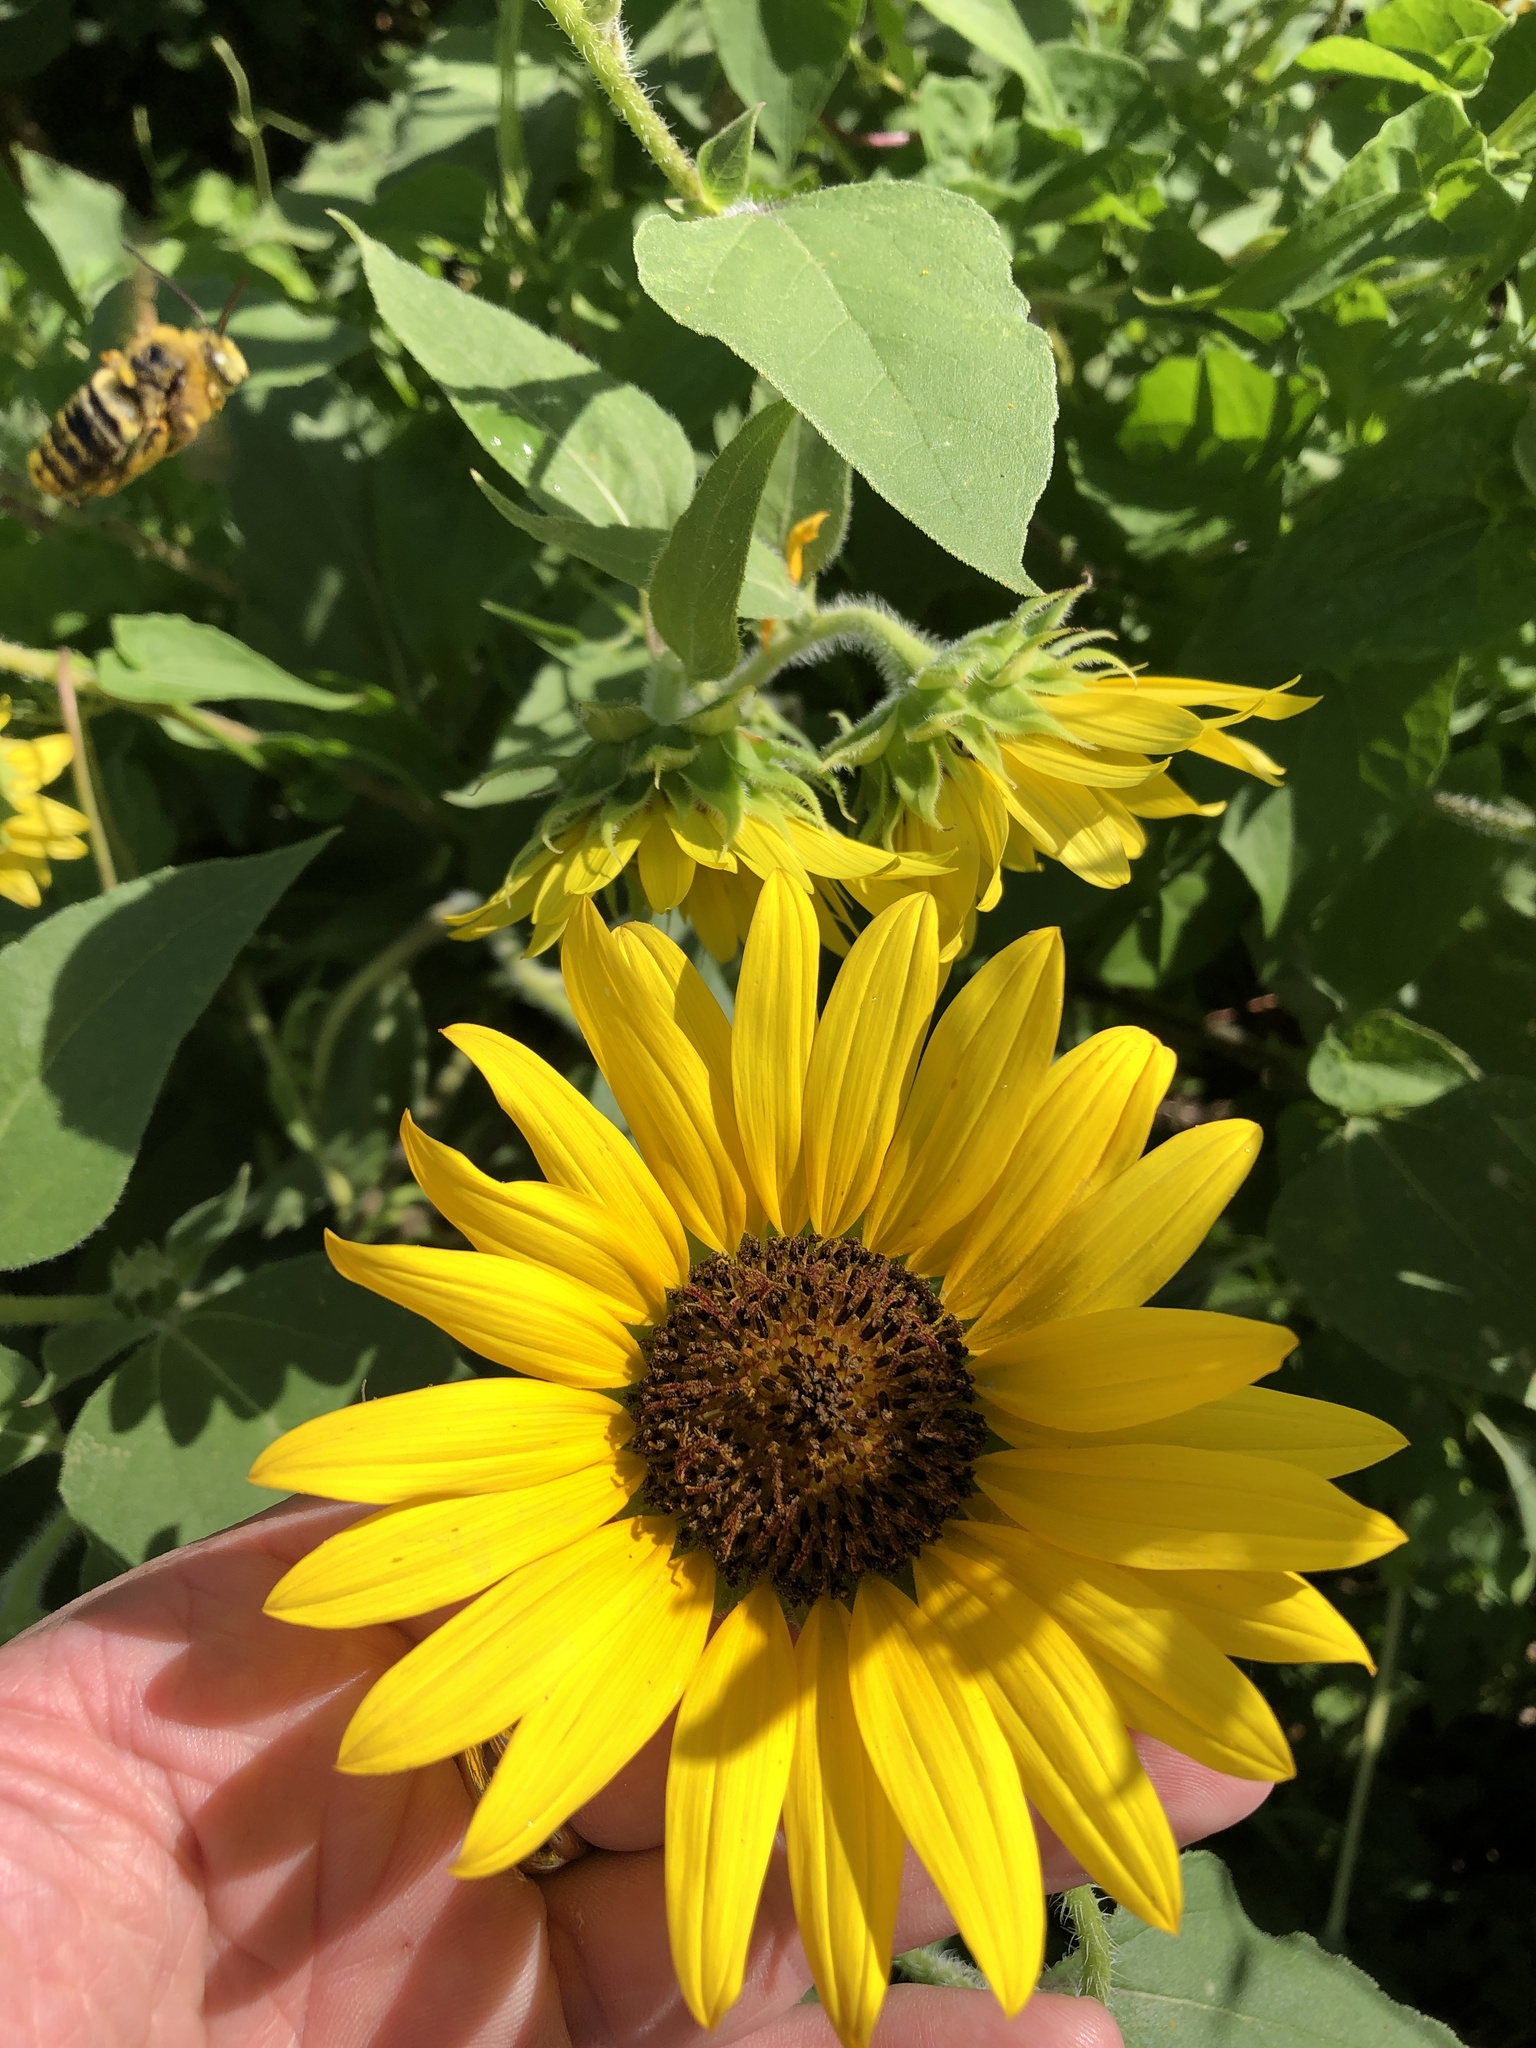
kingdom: Plantae
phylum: Tracheophyta
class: Magnoliopsida
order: Asterales
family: Asteraceae
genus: Helianthus
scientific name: Helianthus annuus
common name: Sunflower
